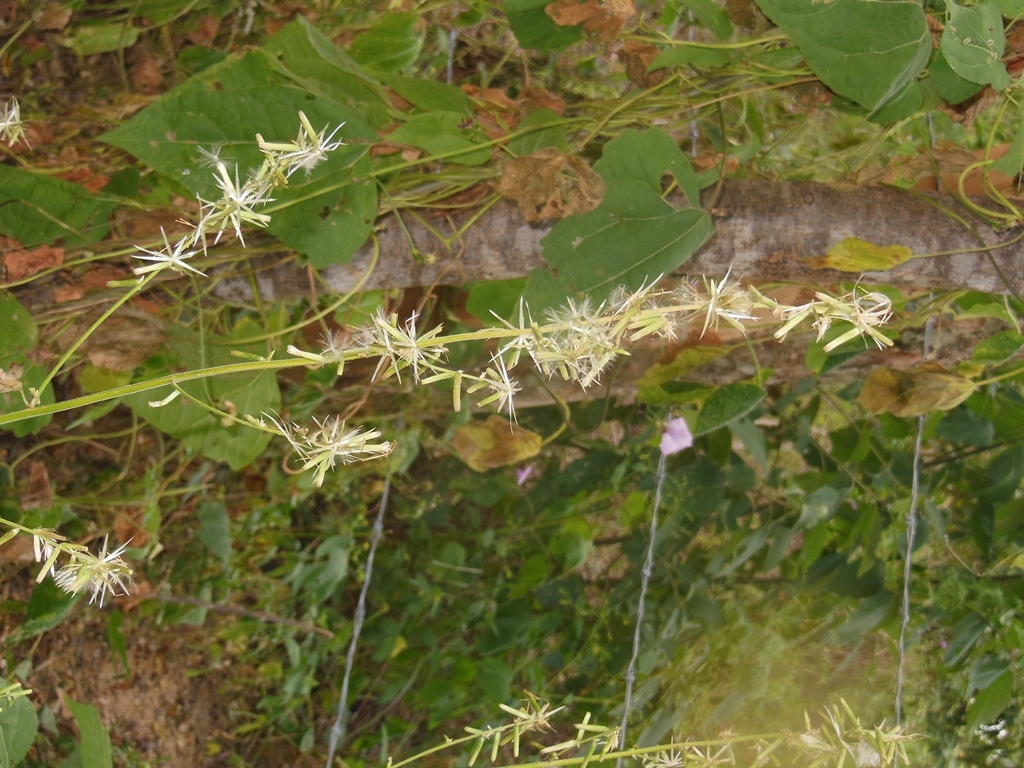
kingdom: Plantae
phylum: Tracheophyta
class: Magnoliopsida
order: Asterales
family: Asteraceae
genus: Carminatia
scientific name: Carminatia recondita
